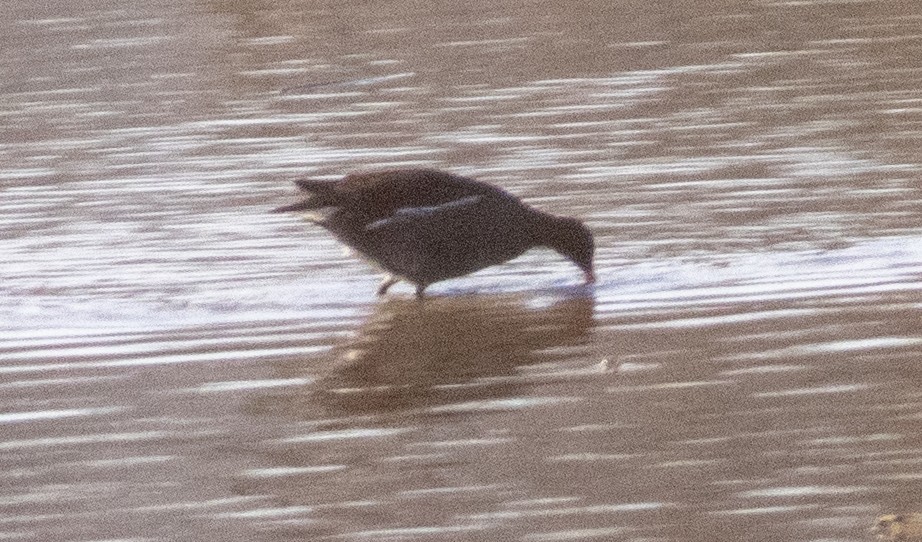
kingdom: Animalia
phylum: Chordata
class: Aves
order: Gruiformes
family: Rallidae
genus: Gallinula
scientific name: Gallinula chloropus
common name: Common moorhen
